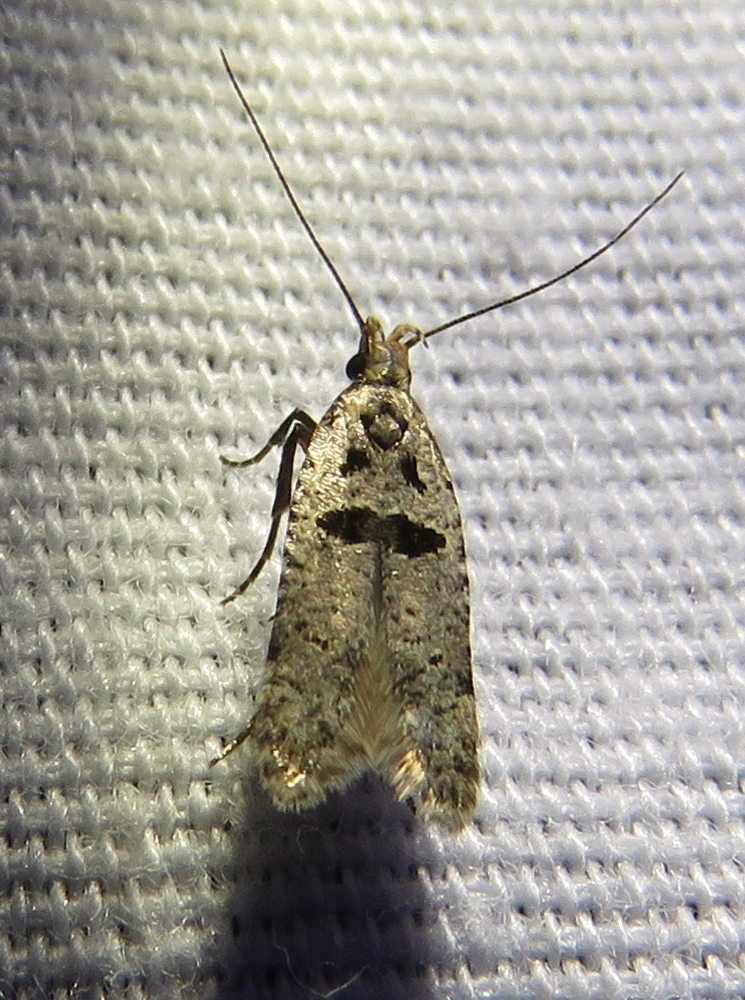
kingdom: Animalia
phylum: Arthropoda
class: Insecta
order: Lepidoptera
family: Gelechiidae
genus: Deltophora
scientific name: Deltophora glandiferella
